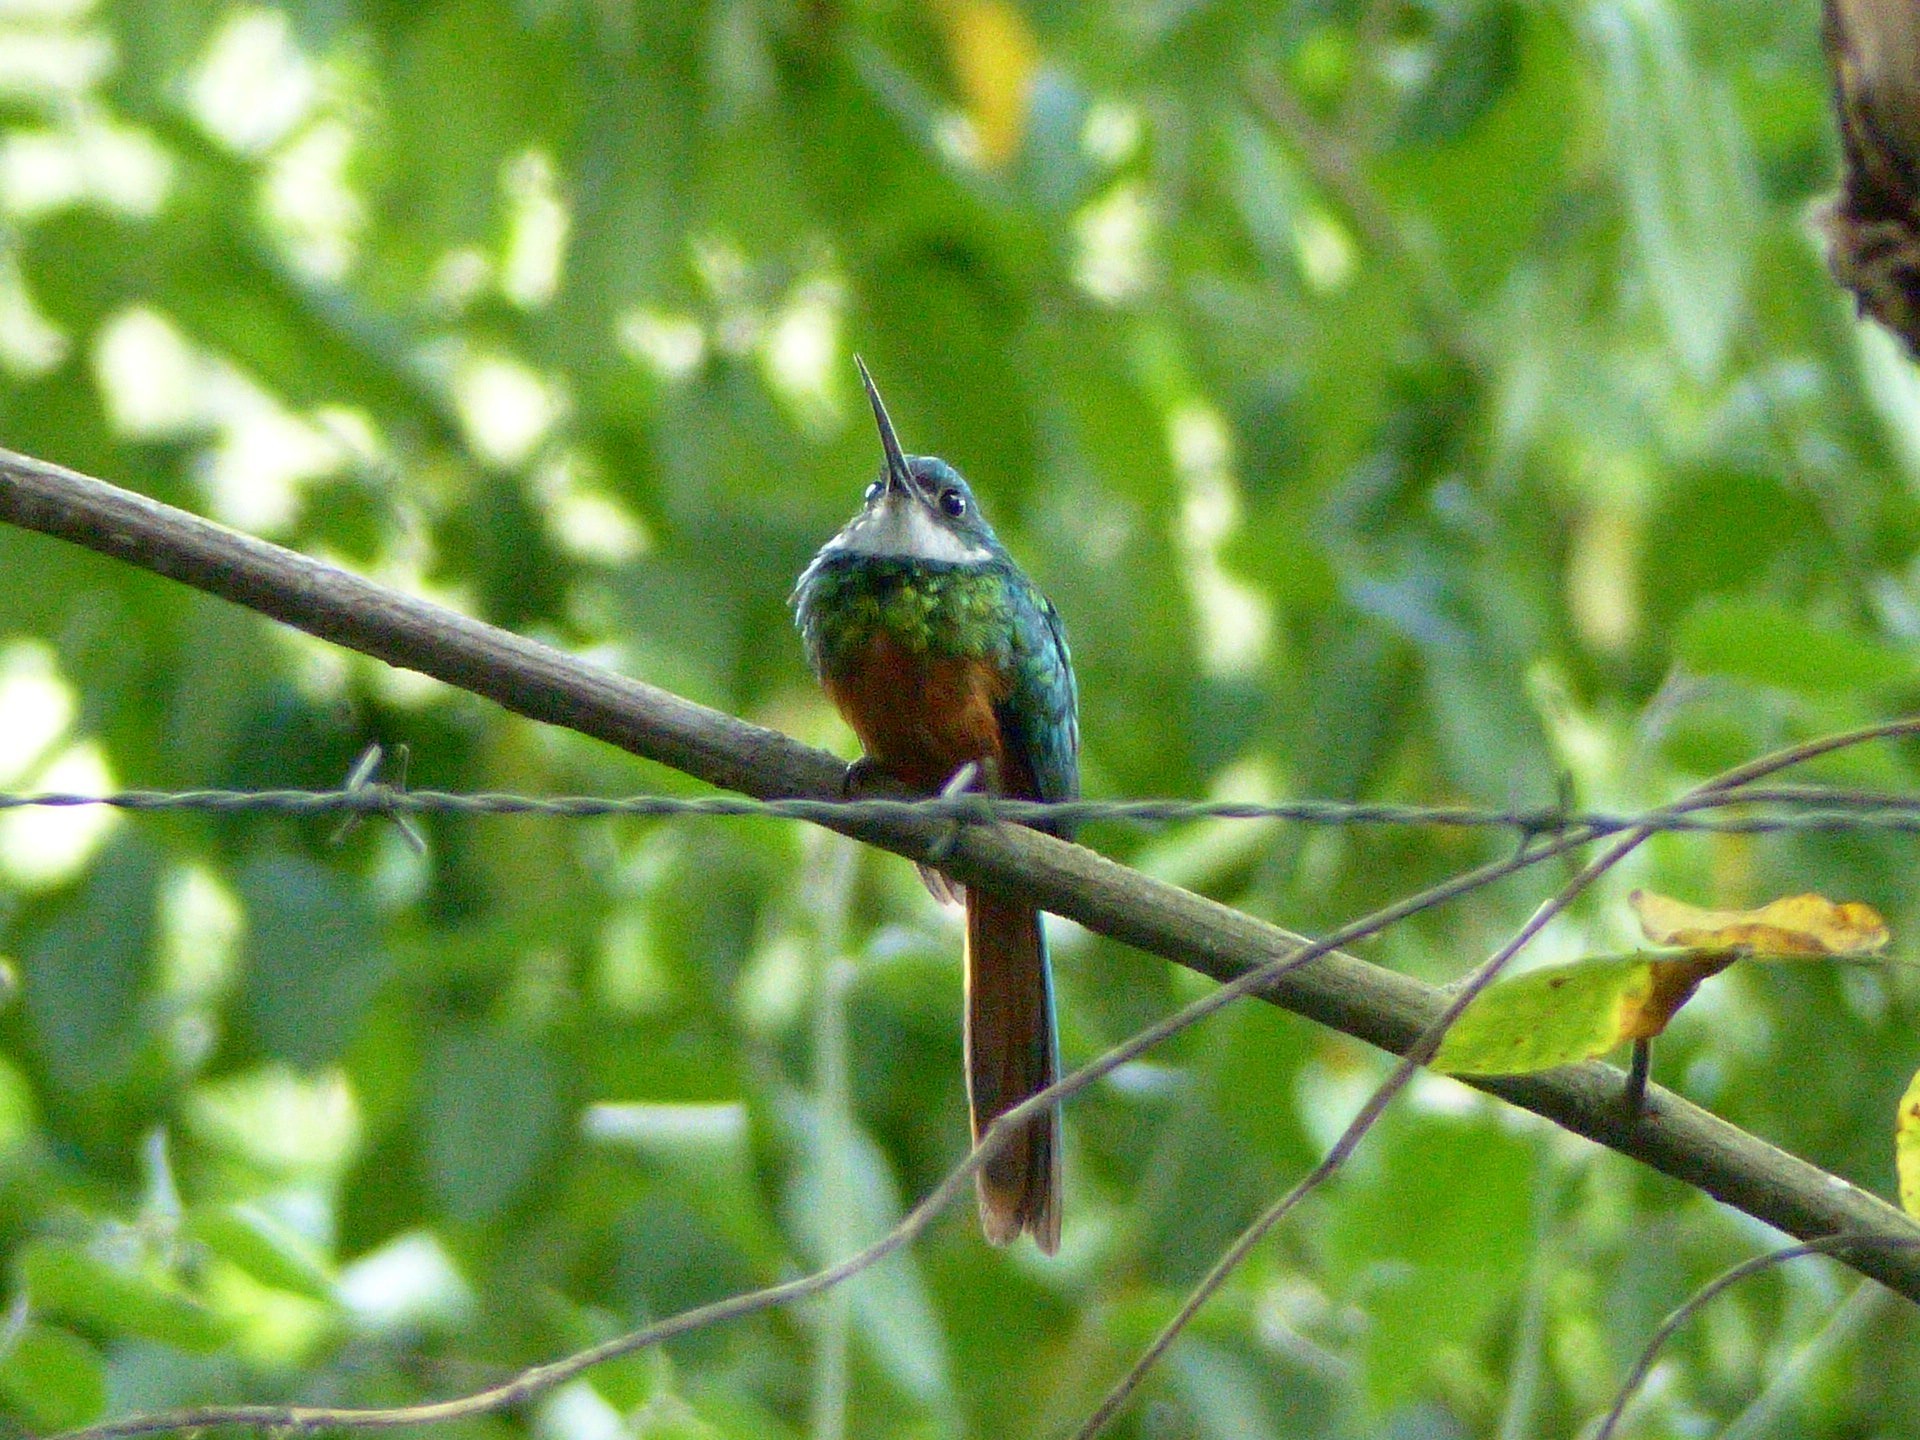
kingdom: Animalia
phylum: Chordata
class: Aves
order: Piciformes
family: Galbulidae
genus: Galbula
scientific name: Galbula ruficauda
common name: Rufous-tailed jacamar
